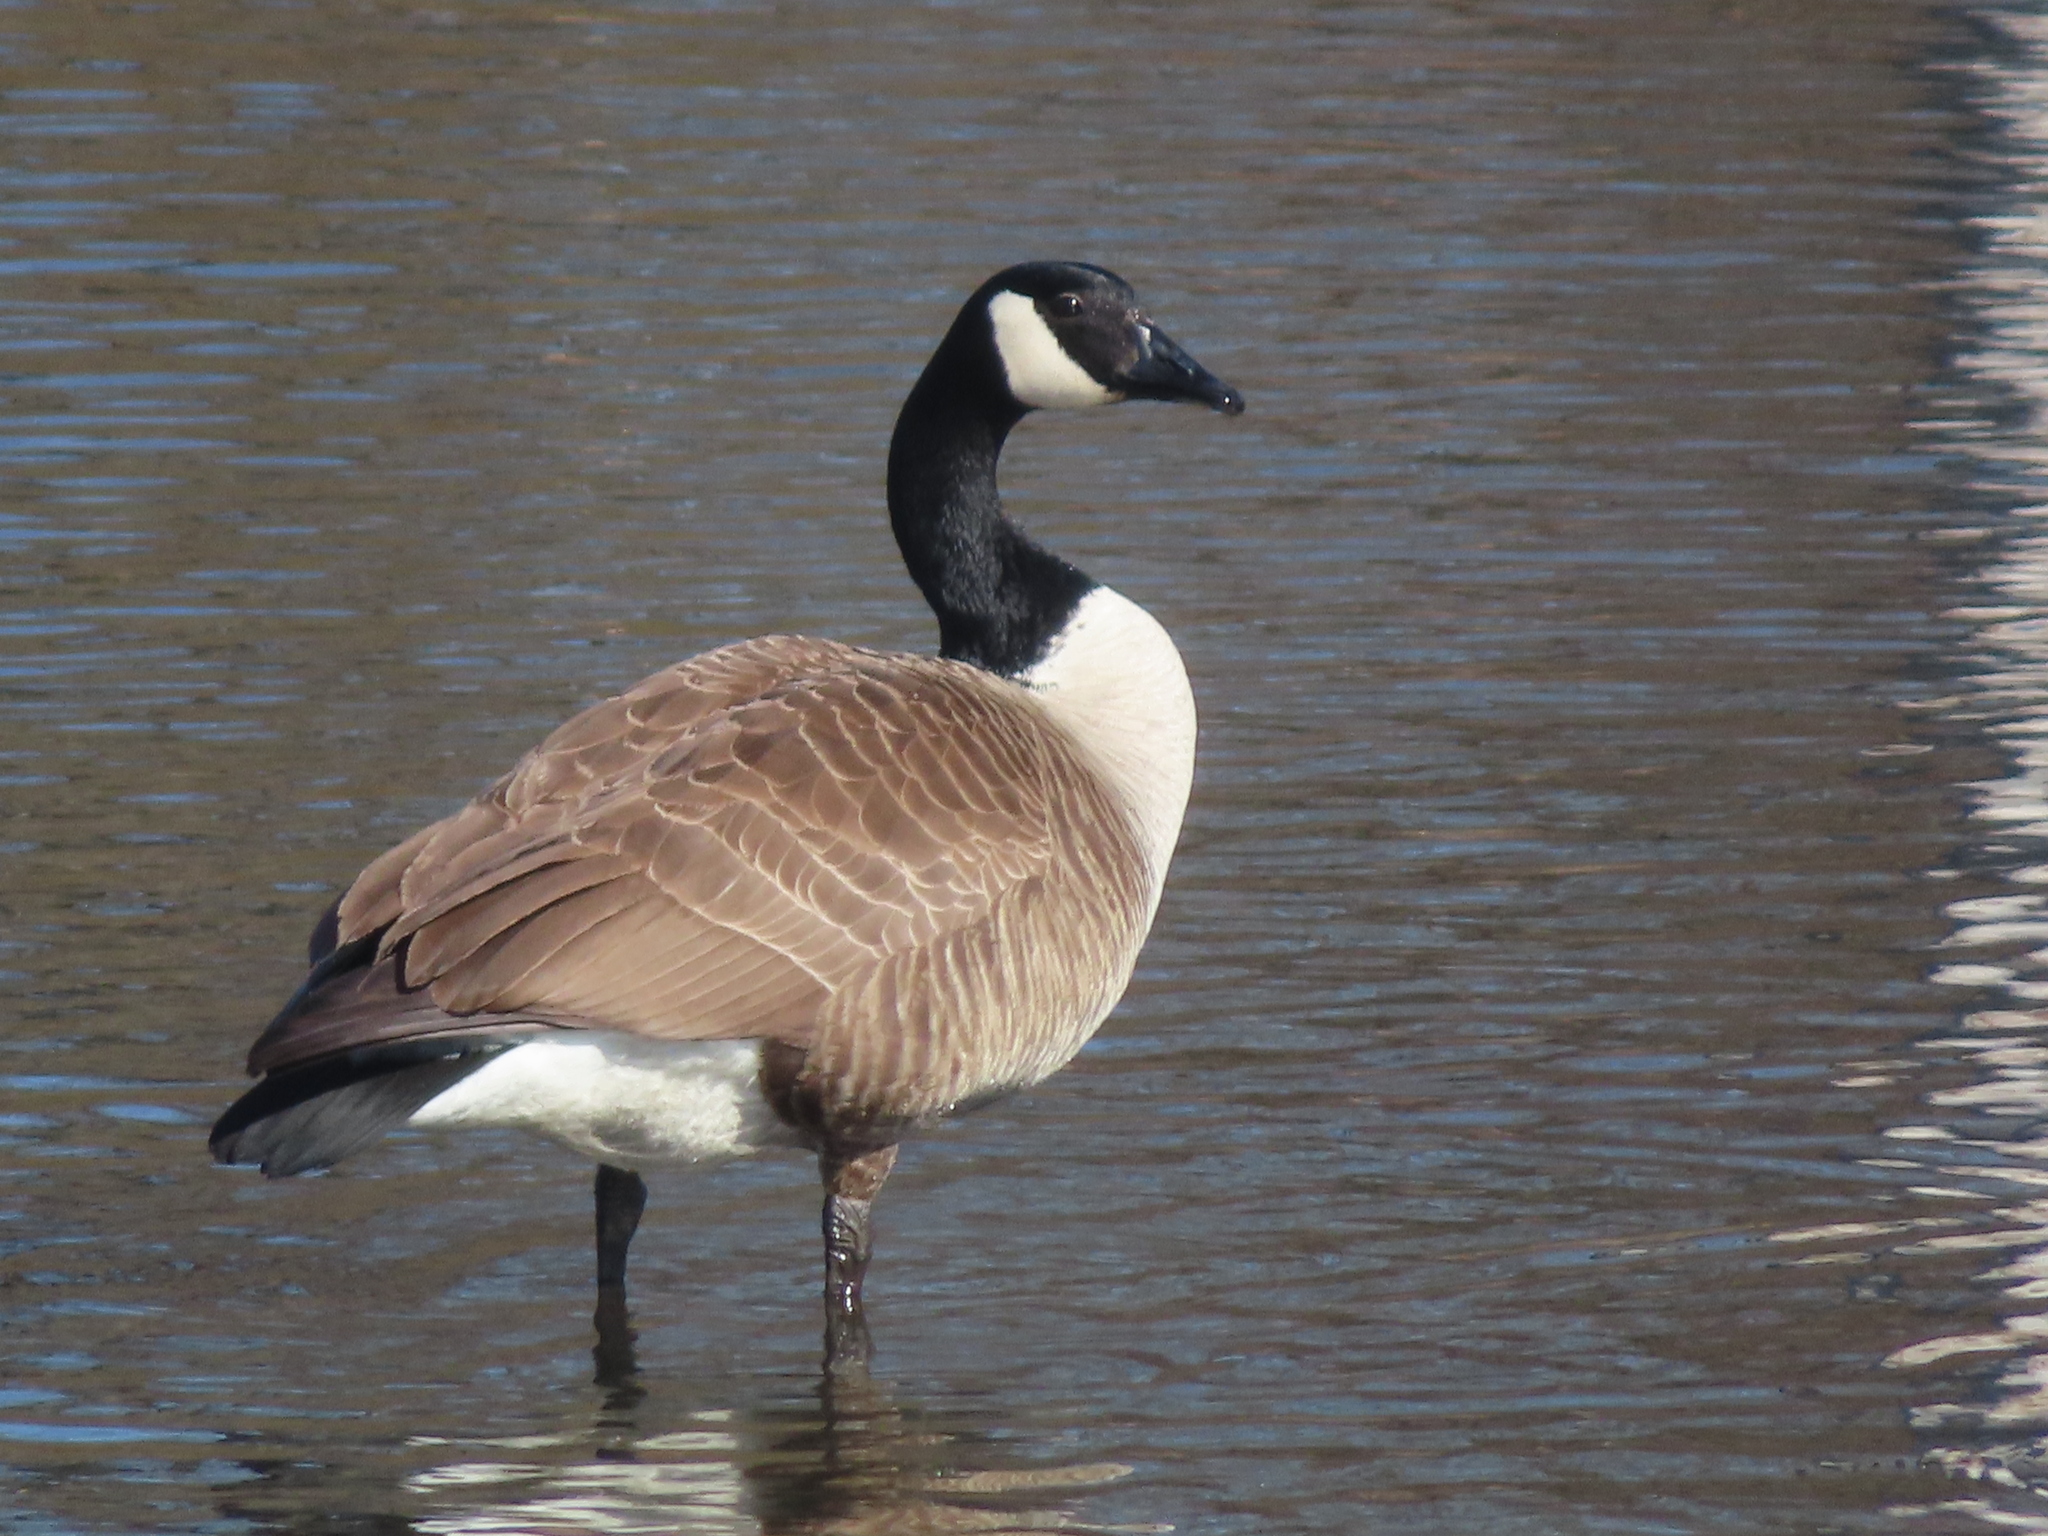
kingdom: Animalia
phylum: Chordata
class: Aves
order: Anseriformes
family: Anatidae
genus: Branta
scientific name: Branta canadensis
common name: Canada goose
